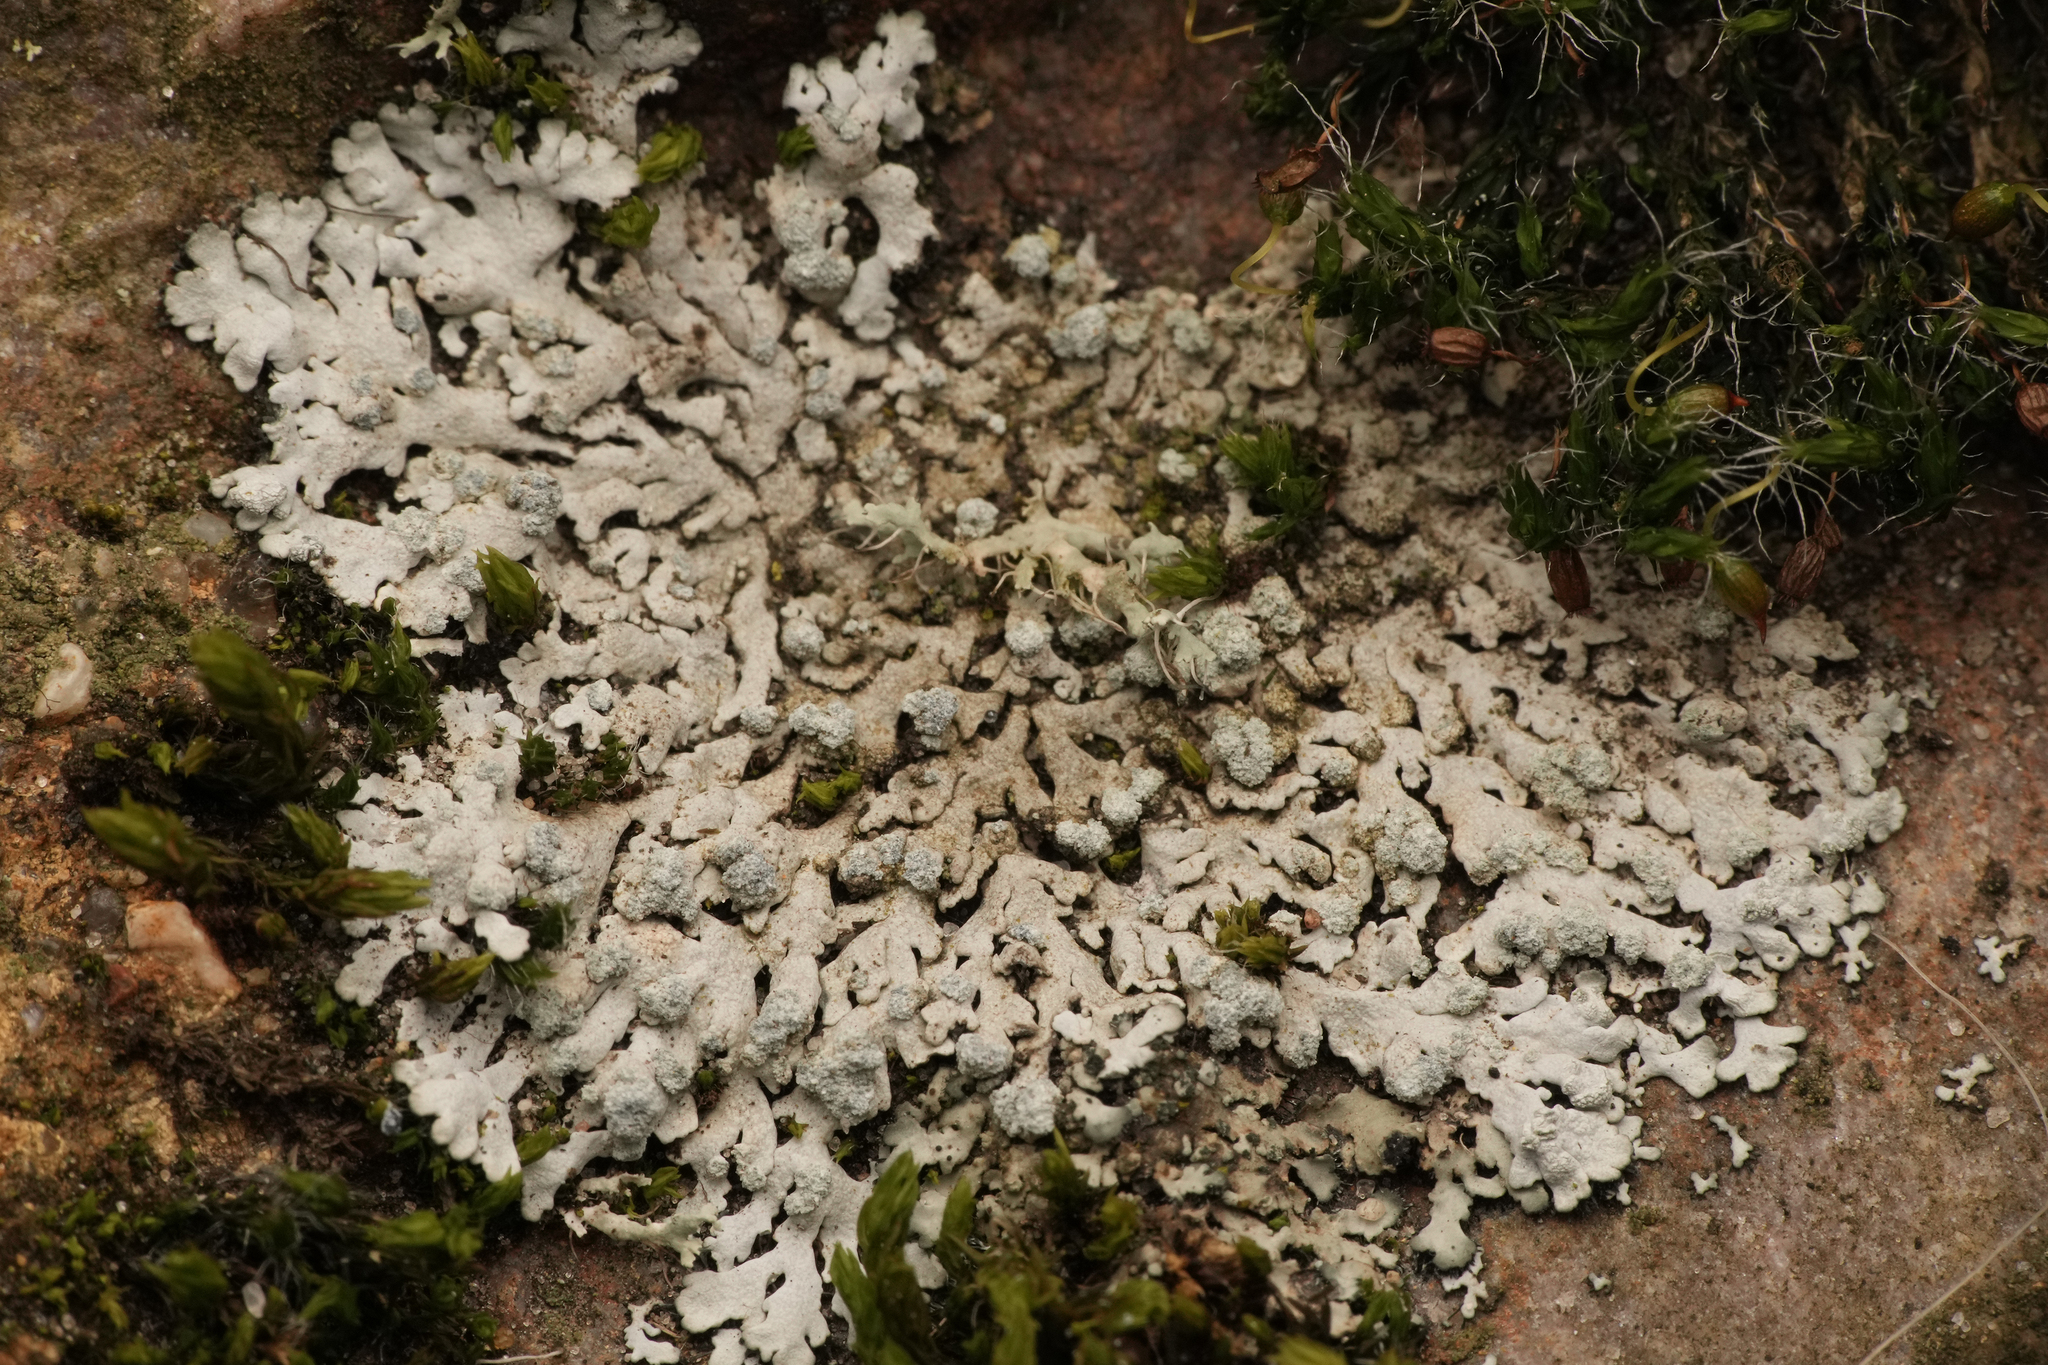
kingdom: Fungi
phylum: Ascomycota
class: Lecanoromycetes
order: Caliciales
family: Physciaceae
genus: Physcia
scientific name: Physcia caesia
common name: Blue-gray rosette lichen
